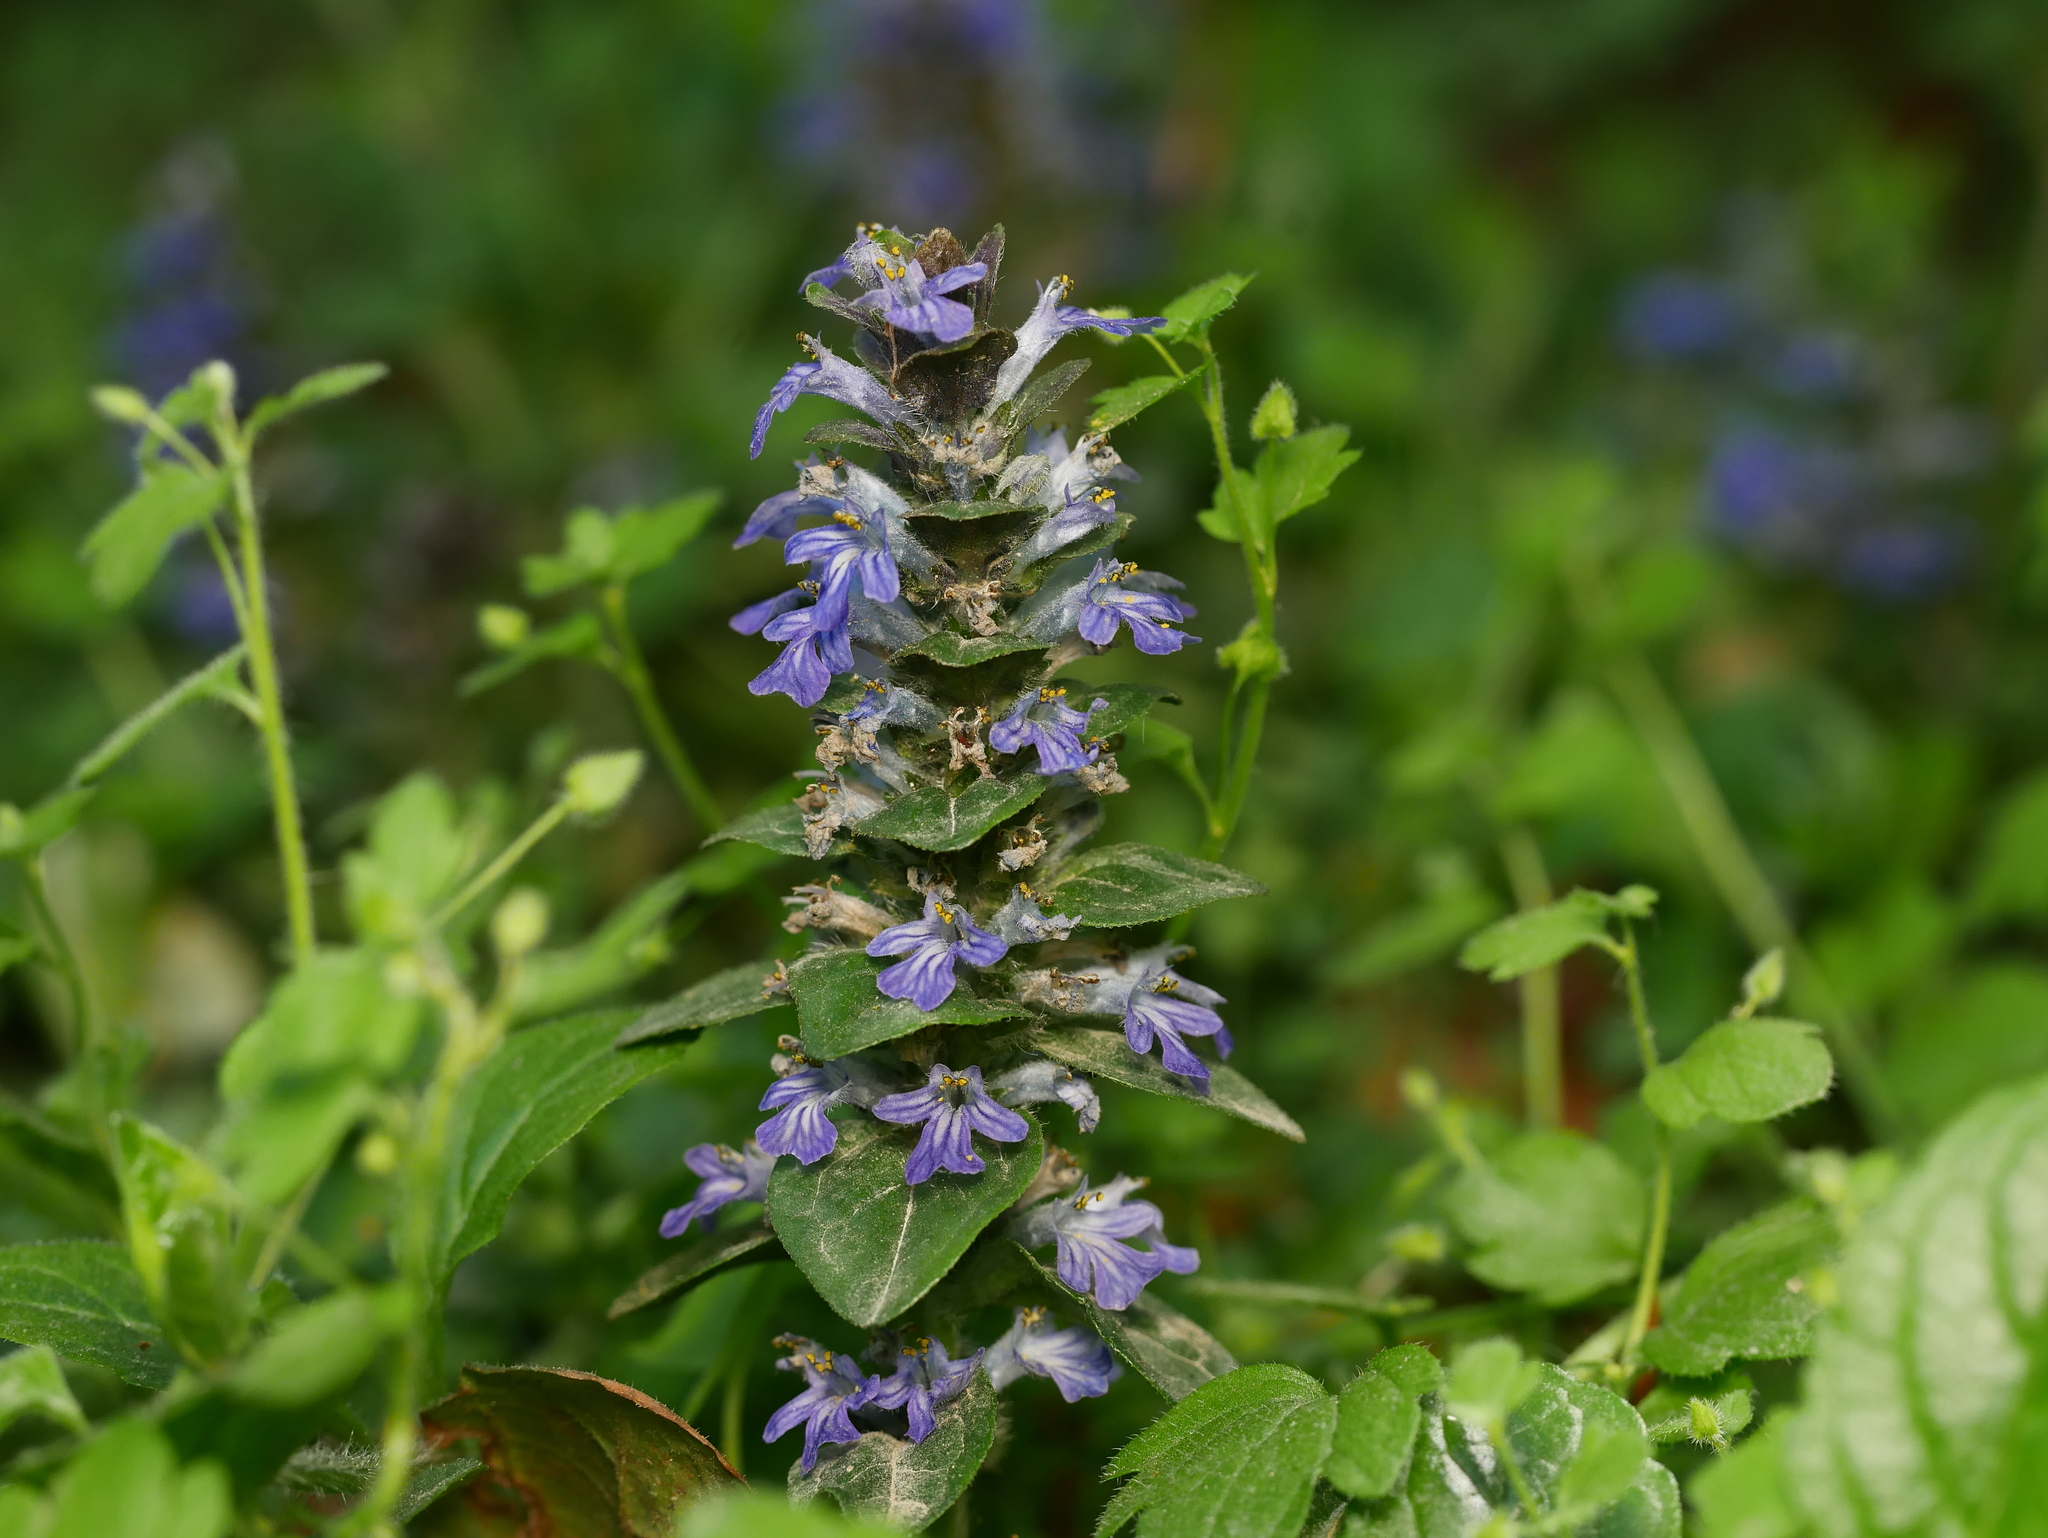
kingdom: Plantae
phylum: Tracheophyta
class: Magnoliopsida
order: Lamiales
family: Lamiaceae
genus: Ajuga
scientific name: Ajuga reptans
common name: Bugle
